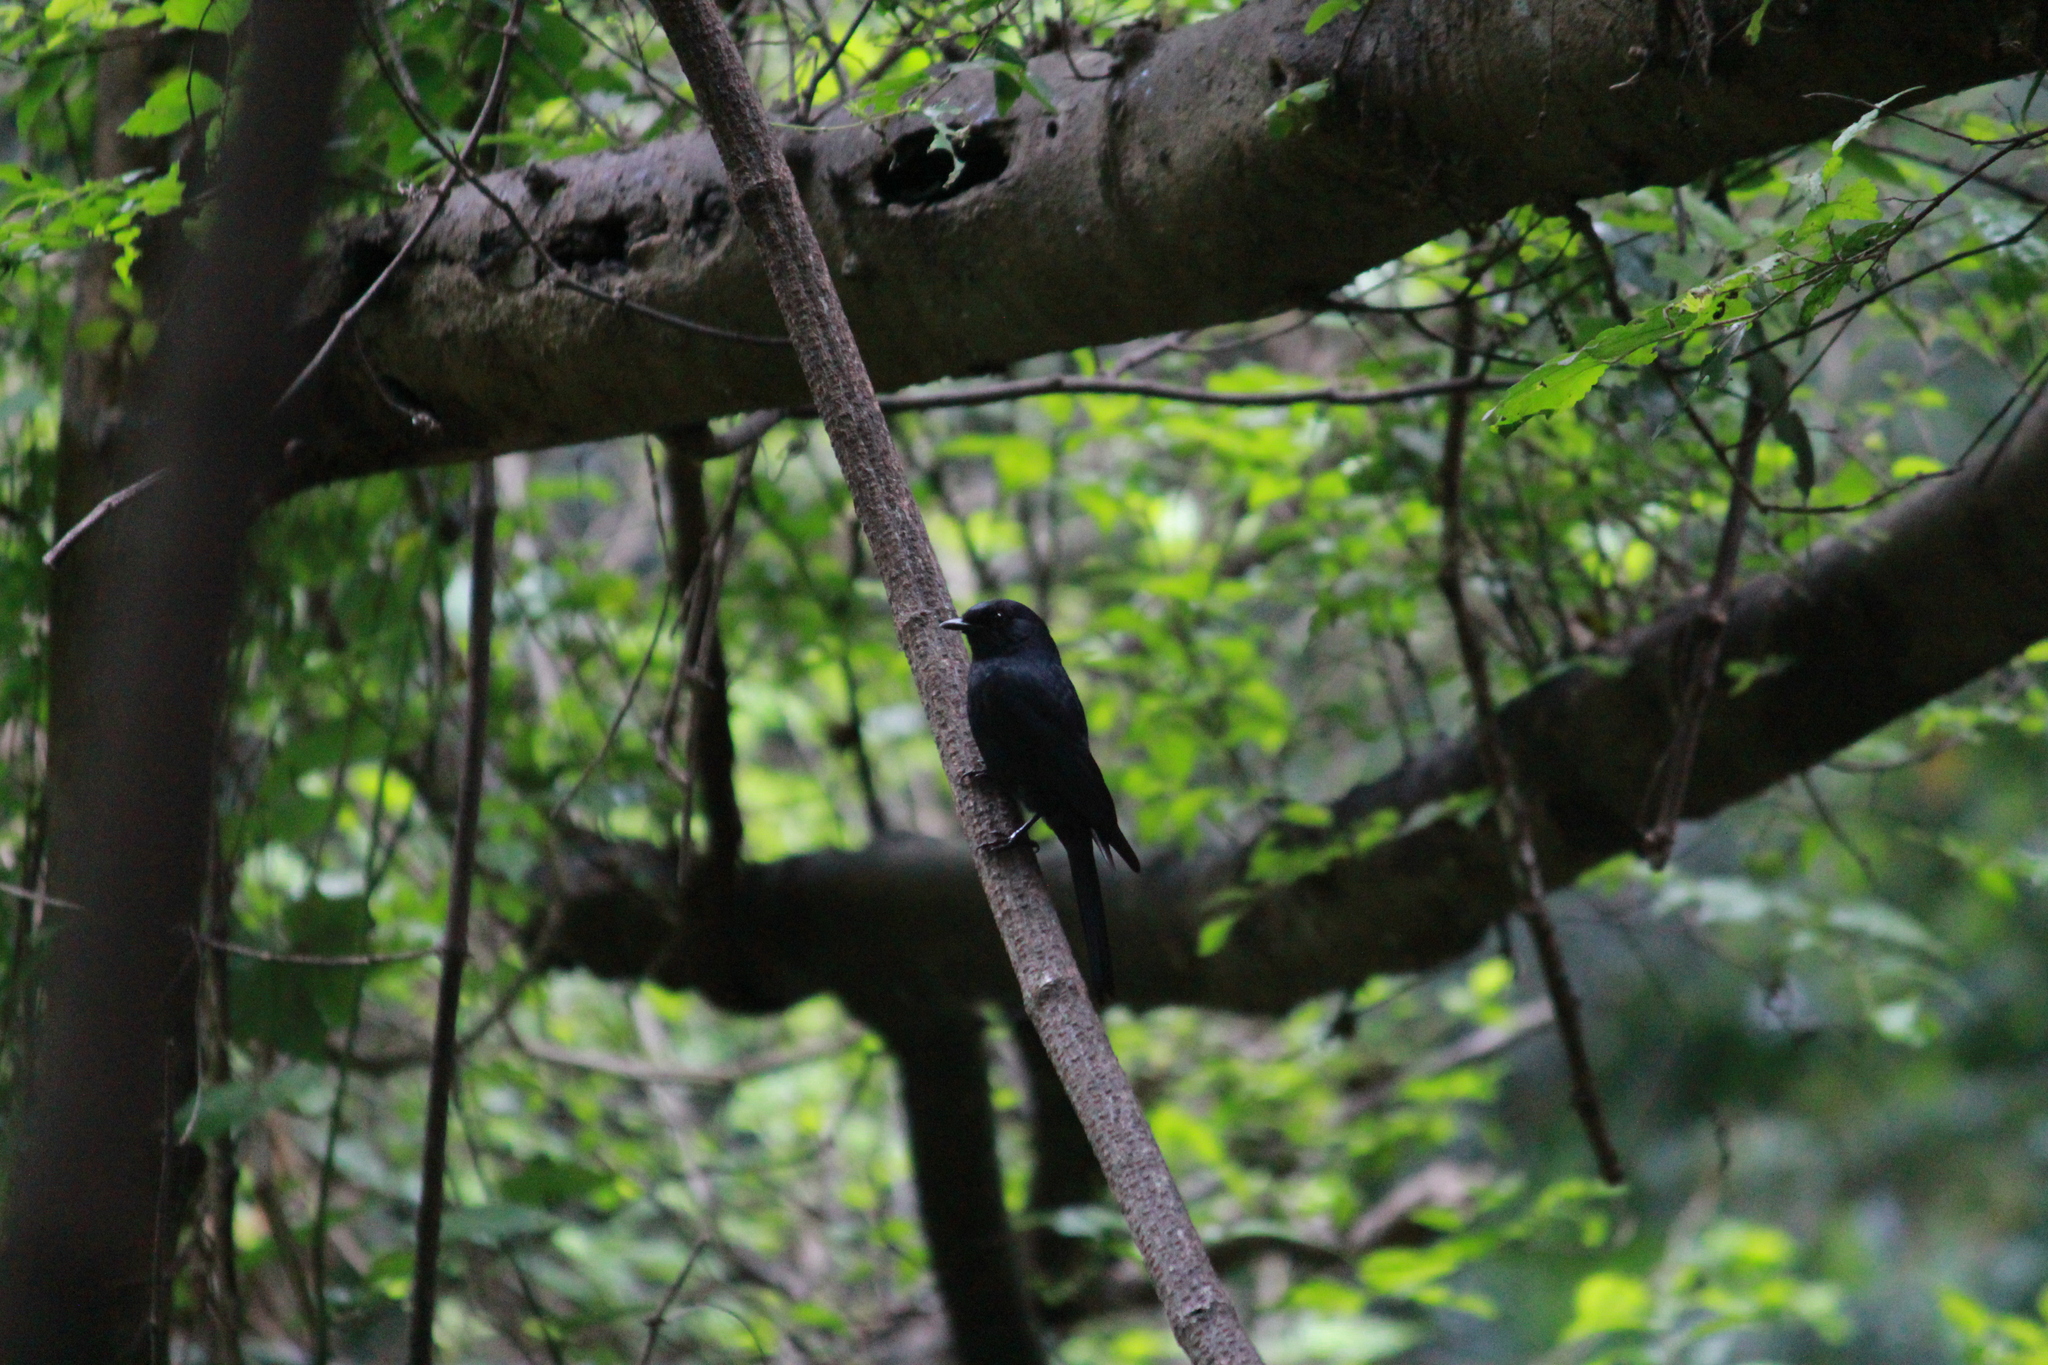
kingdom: Animalia
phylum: Chordata
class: Aves
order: Passeriformes
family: Dicruridae
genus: Dicrurus
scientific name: Dicrurus ludwigii
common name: Square-tailed drongo
